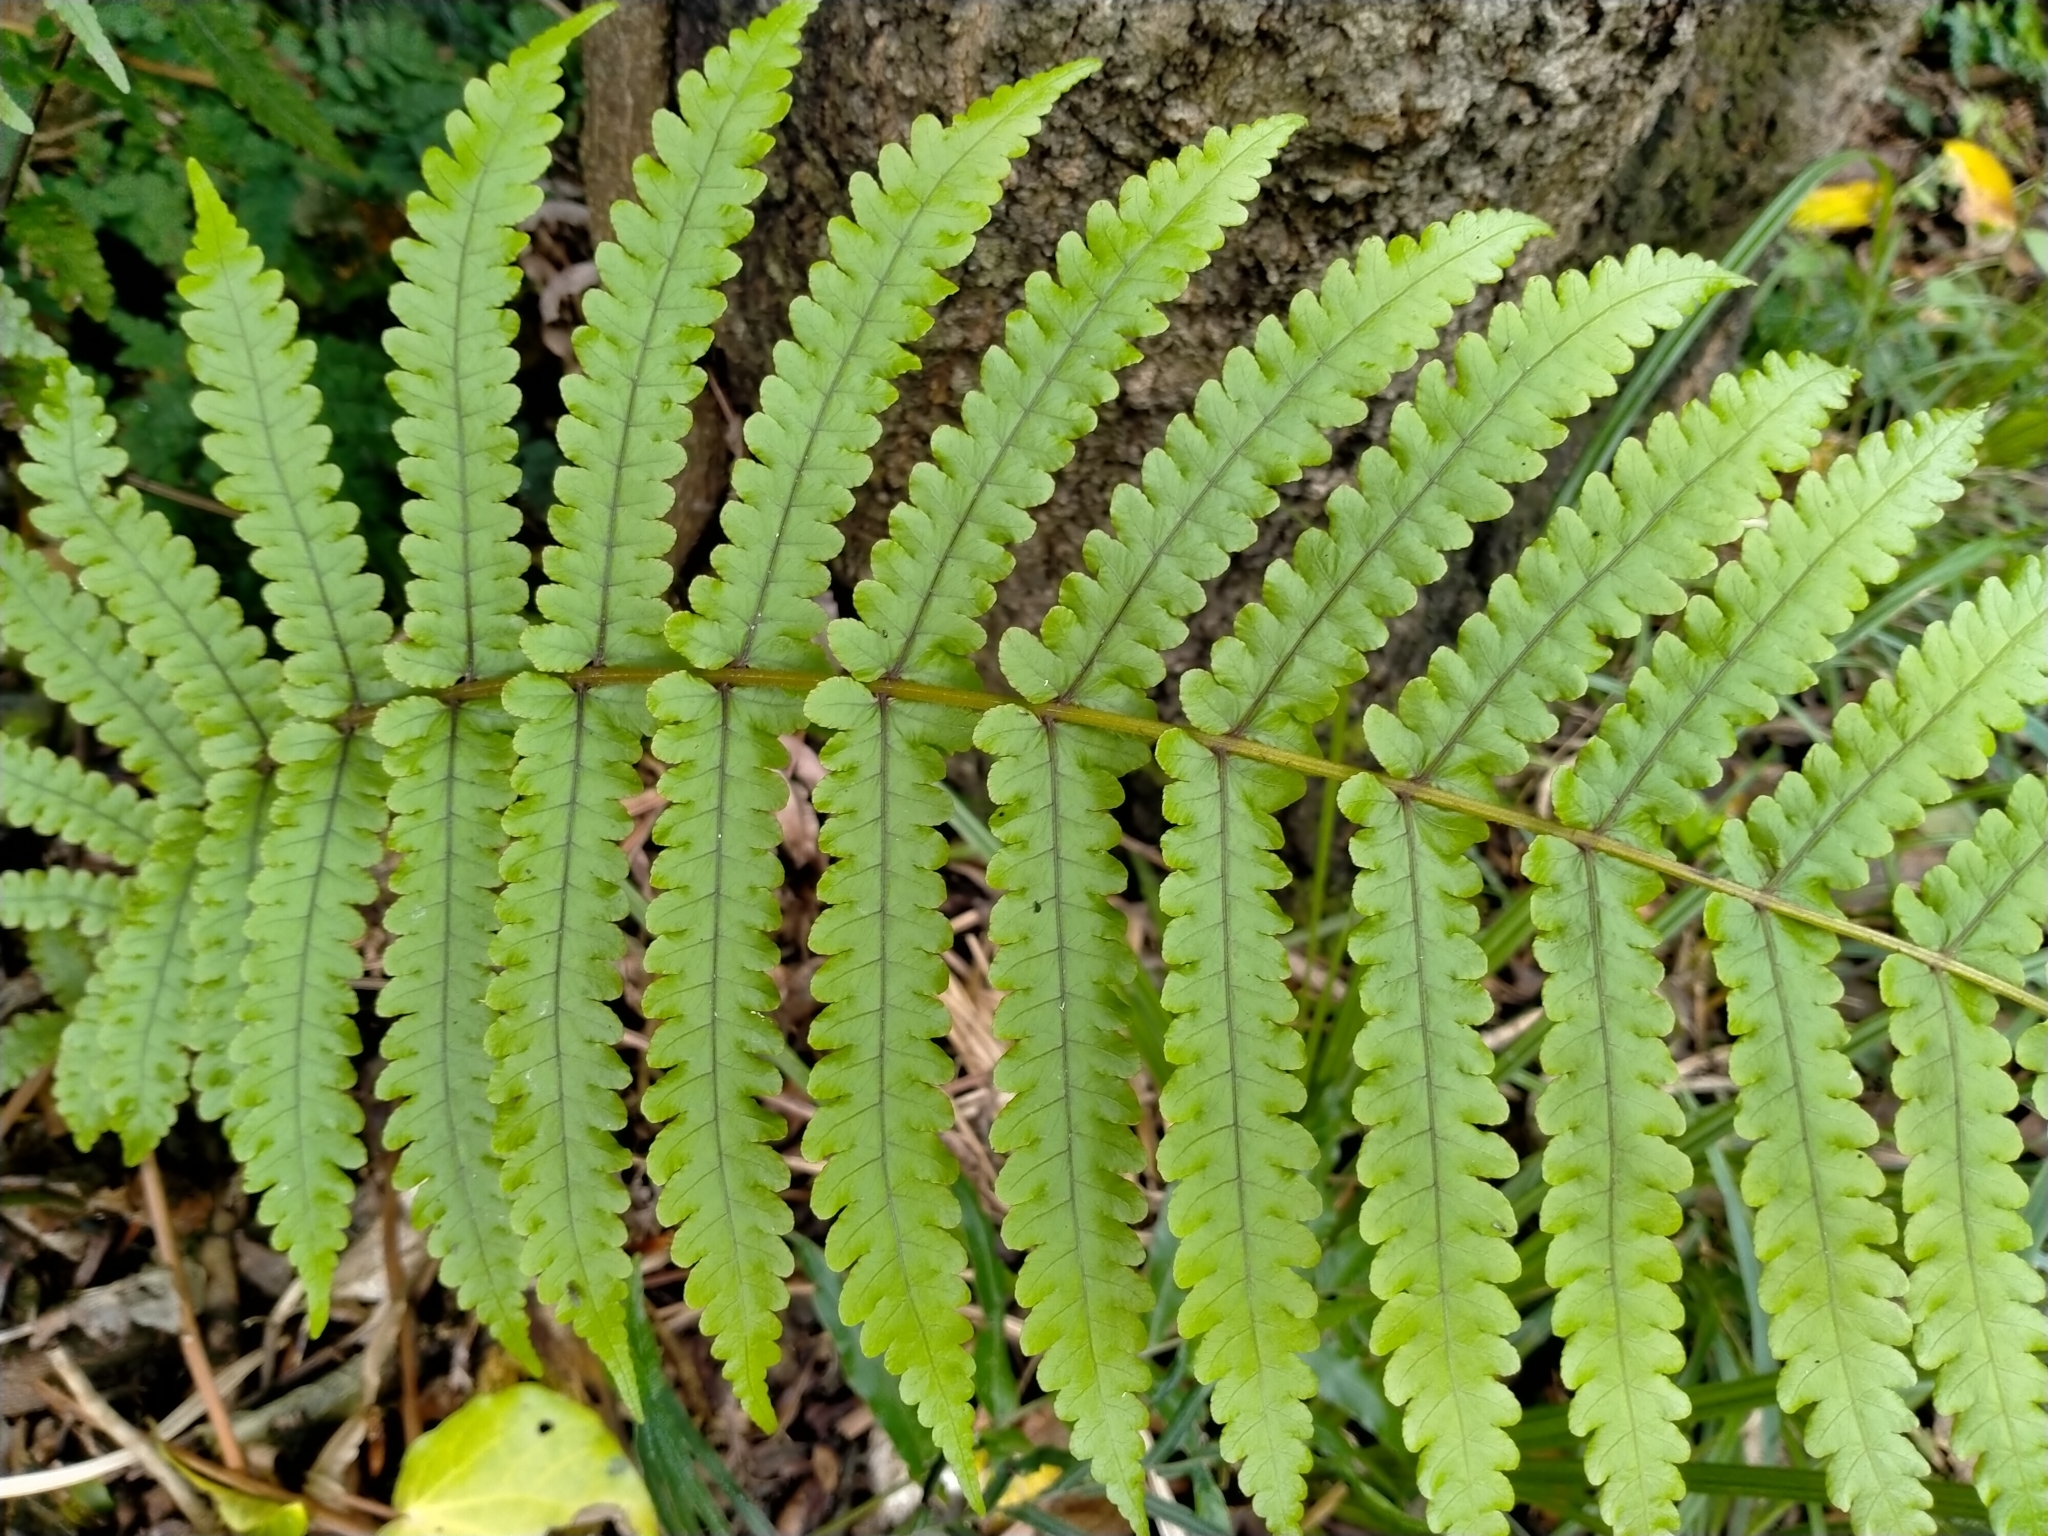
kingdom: Plantae
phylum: Tracheophyta
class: Polypodiopsida
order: Polypodiales
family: Thelypteridaceae
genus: Pakau
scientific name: Pakau pennigera
